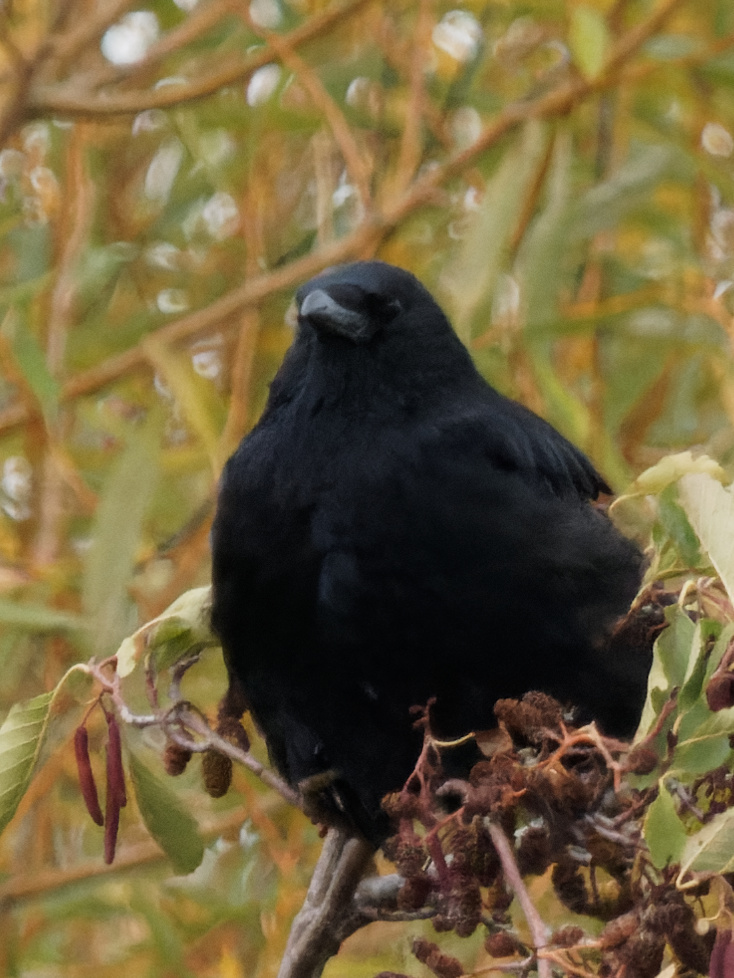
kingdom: Animalia
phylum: Chordata
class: Aves
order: Passeriformes
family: Corvidae
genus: Corvus
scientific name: Corvus corone
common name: Carrion crow
